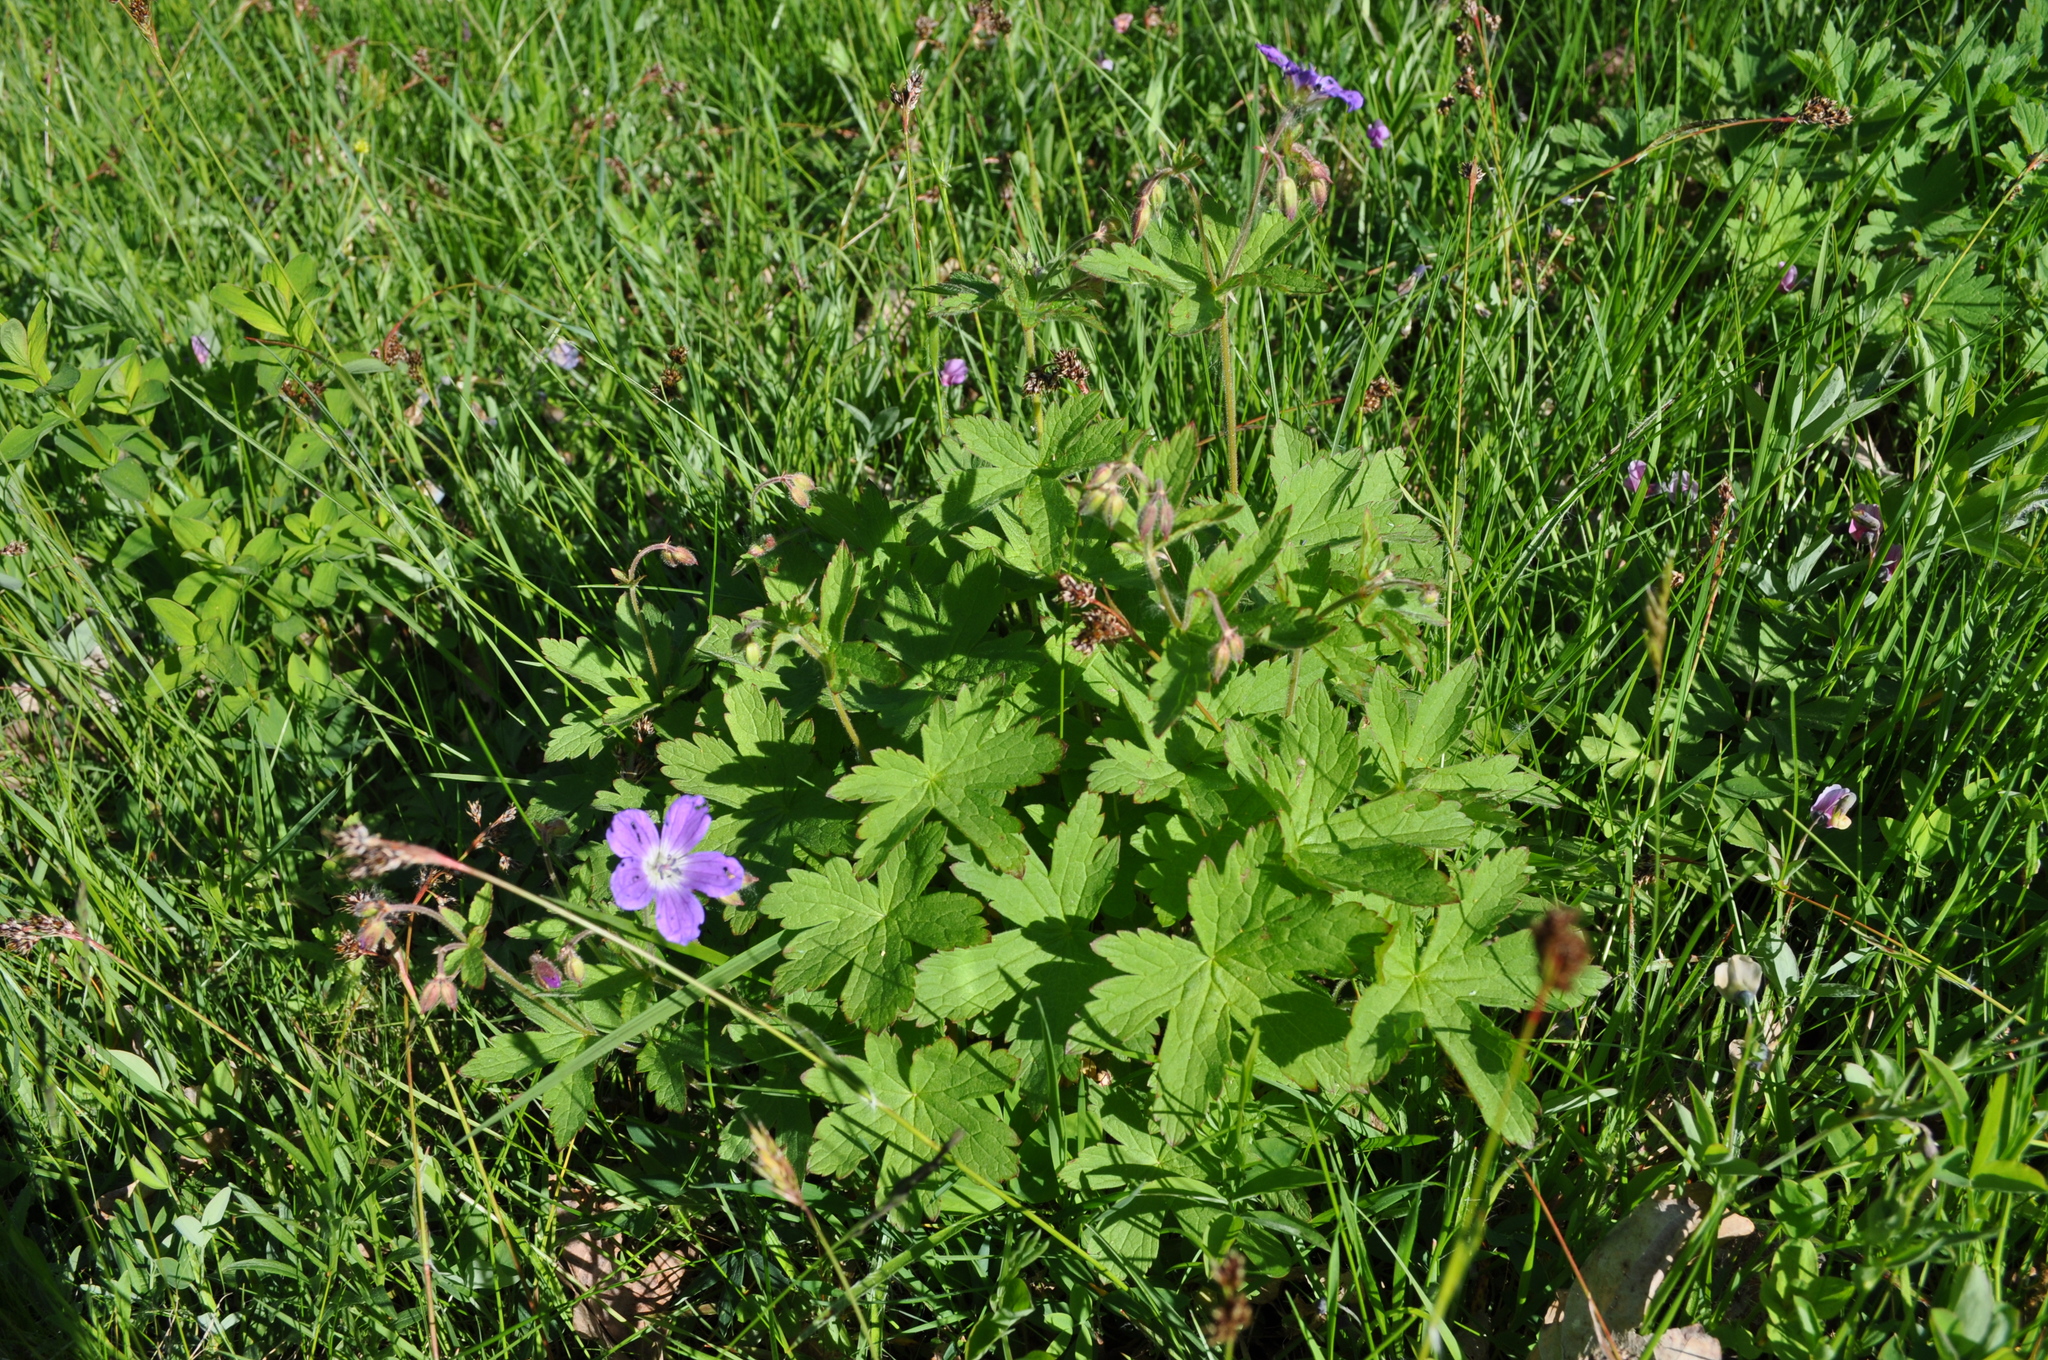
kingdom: Plantae
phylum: Tracheophyta
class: Magnoliopsida
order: Geraniales
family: Geraniaceae
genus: Geranium
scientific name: Geranium sylvaticum
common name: Wood crane's-bill
